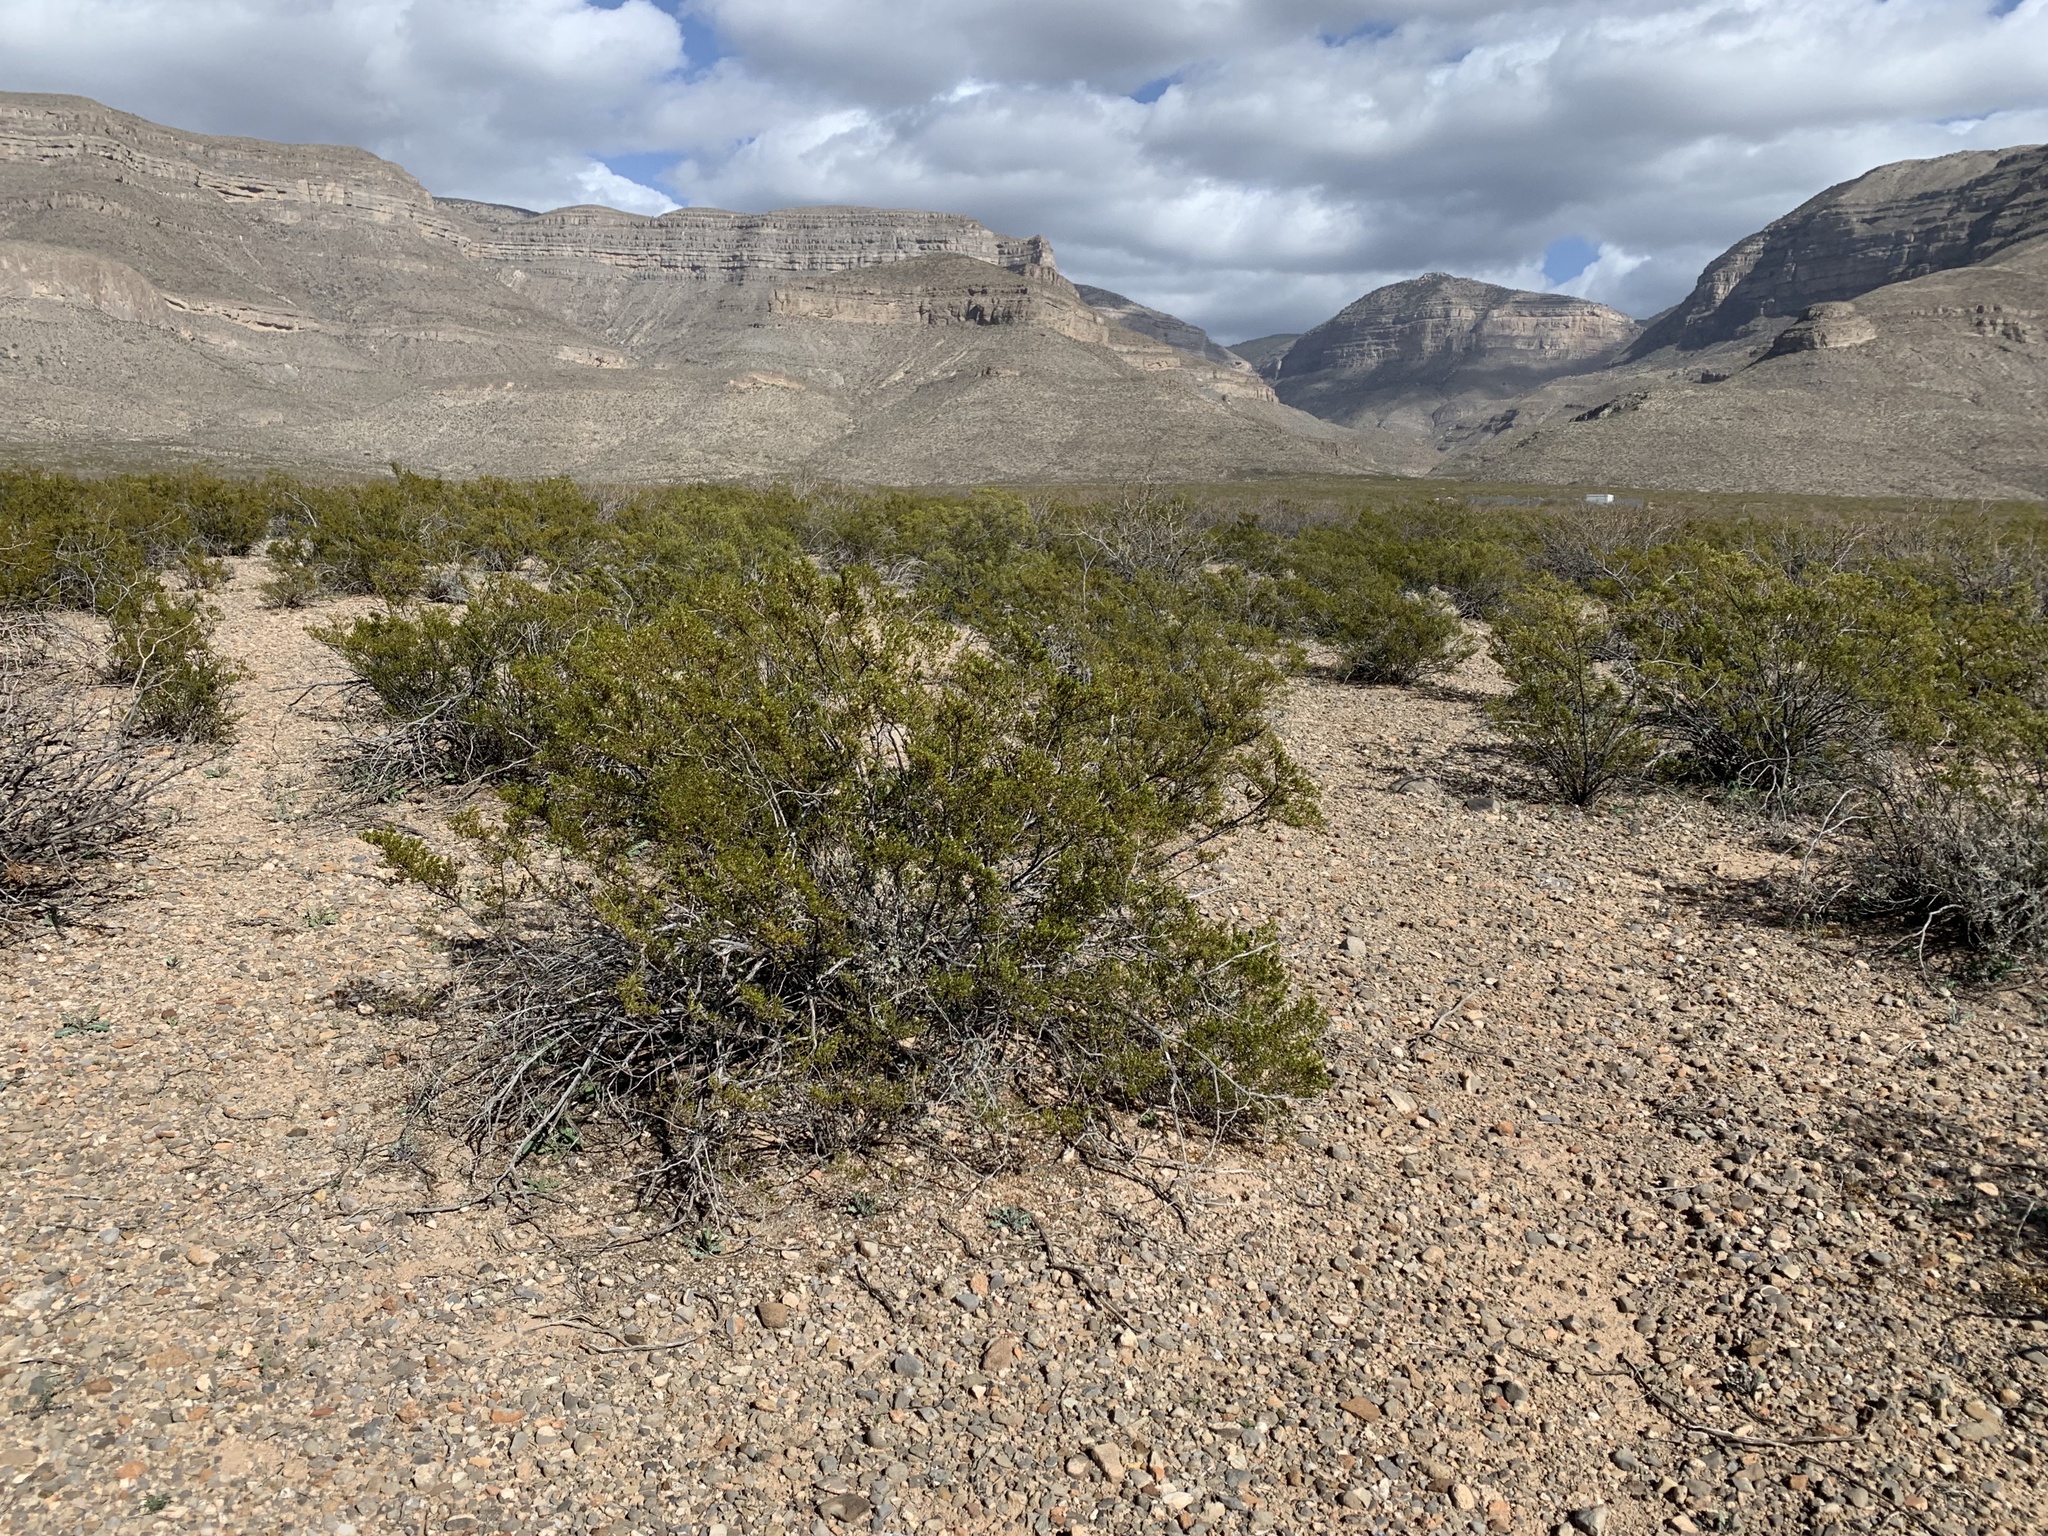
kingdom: Plantae
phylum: Tracheophyta
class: Magnoliopsida
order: Zygophyllales
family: Zygophyllaceae
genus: Larrea
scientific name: Larrea tridentata
